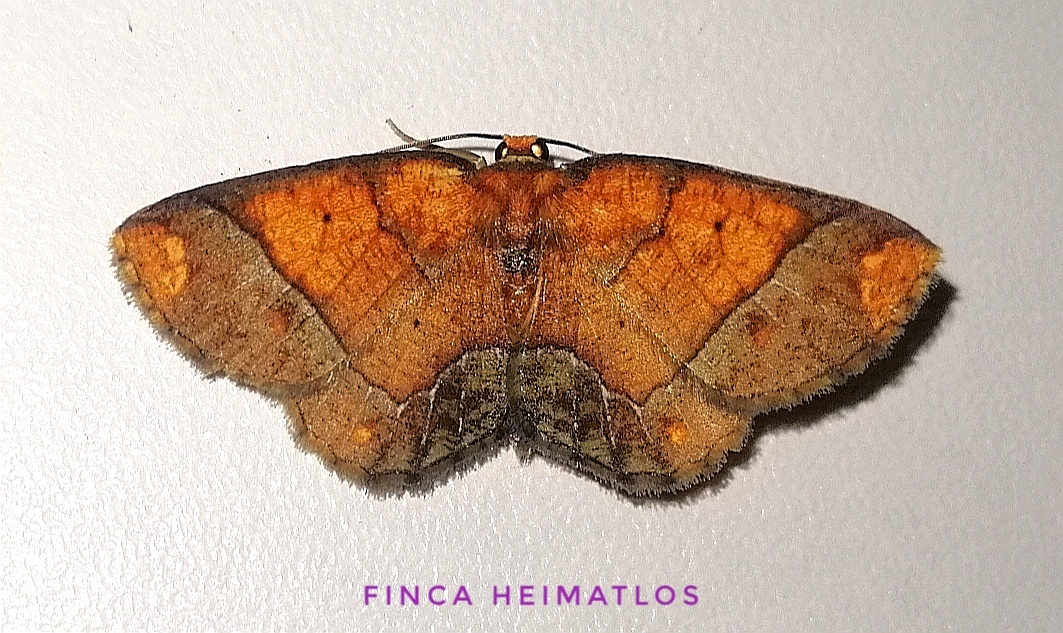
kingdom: Animalia
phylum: Arthropoda
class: Insecta
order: Lepidoptera
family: Geometridae
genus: Melinoides
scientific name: Melinoides detersaria
